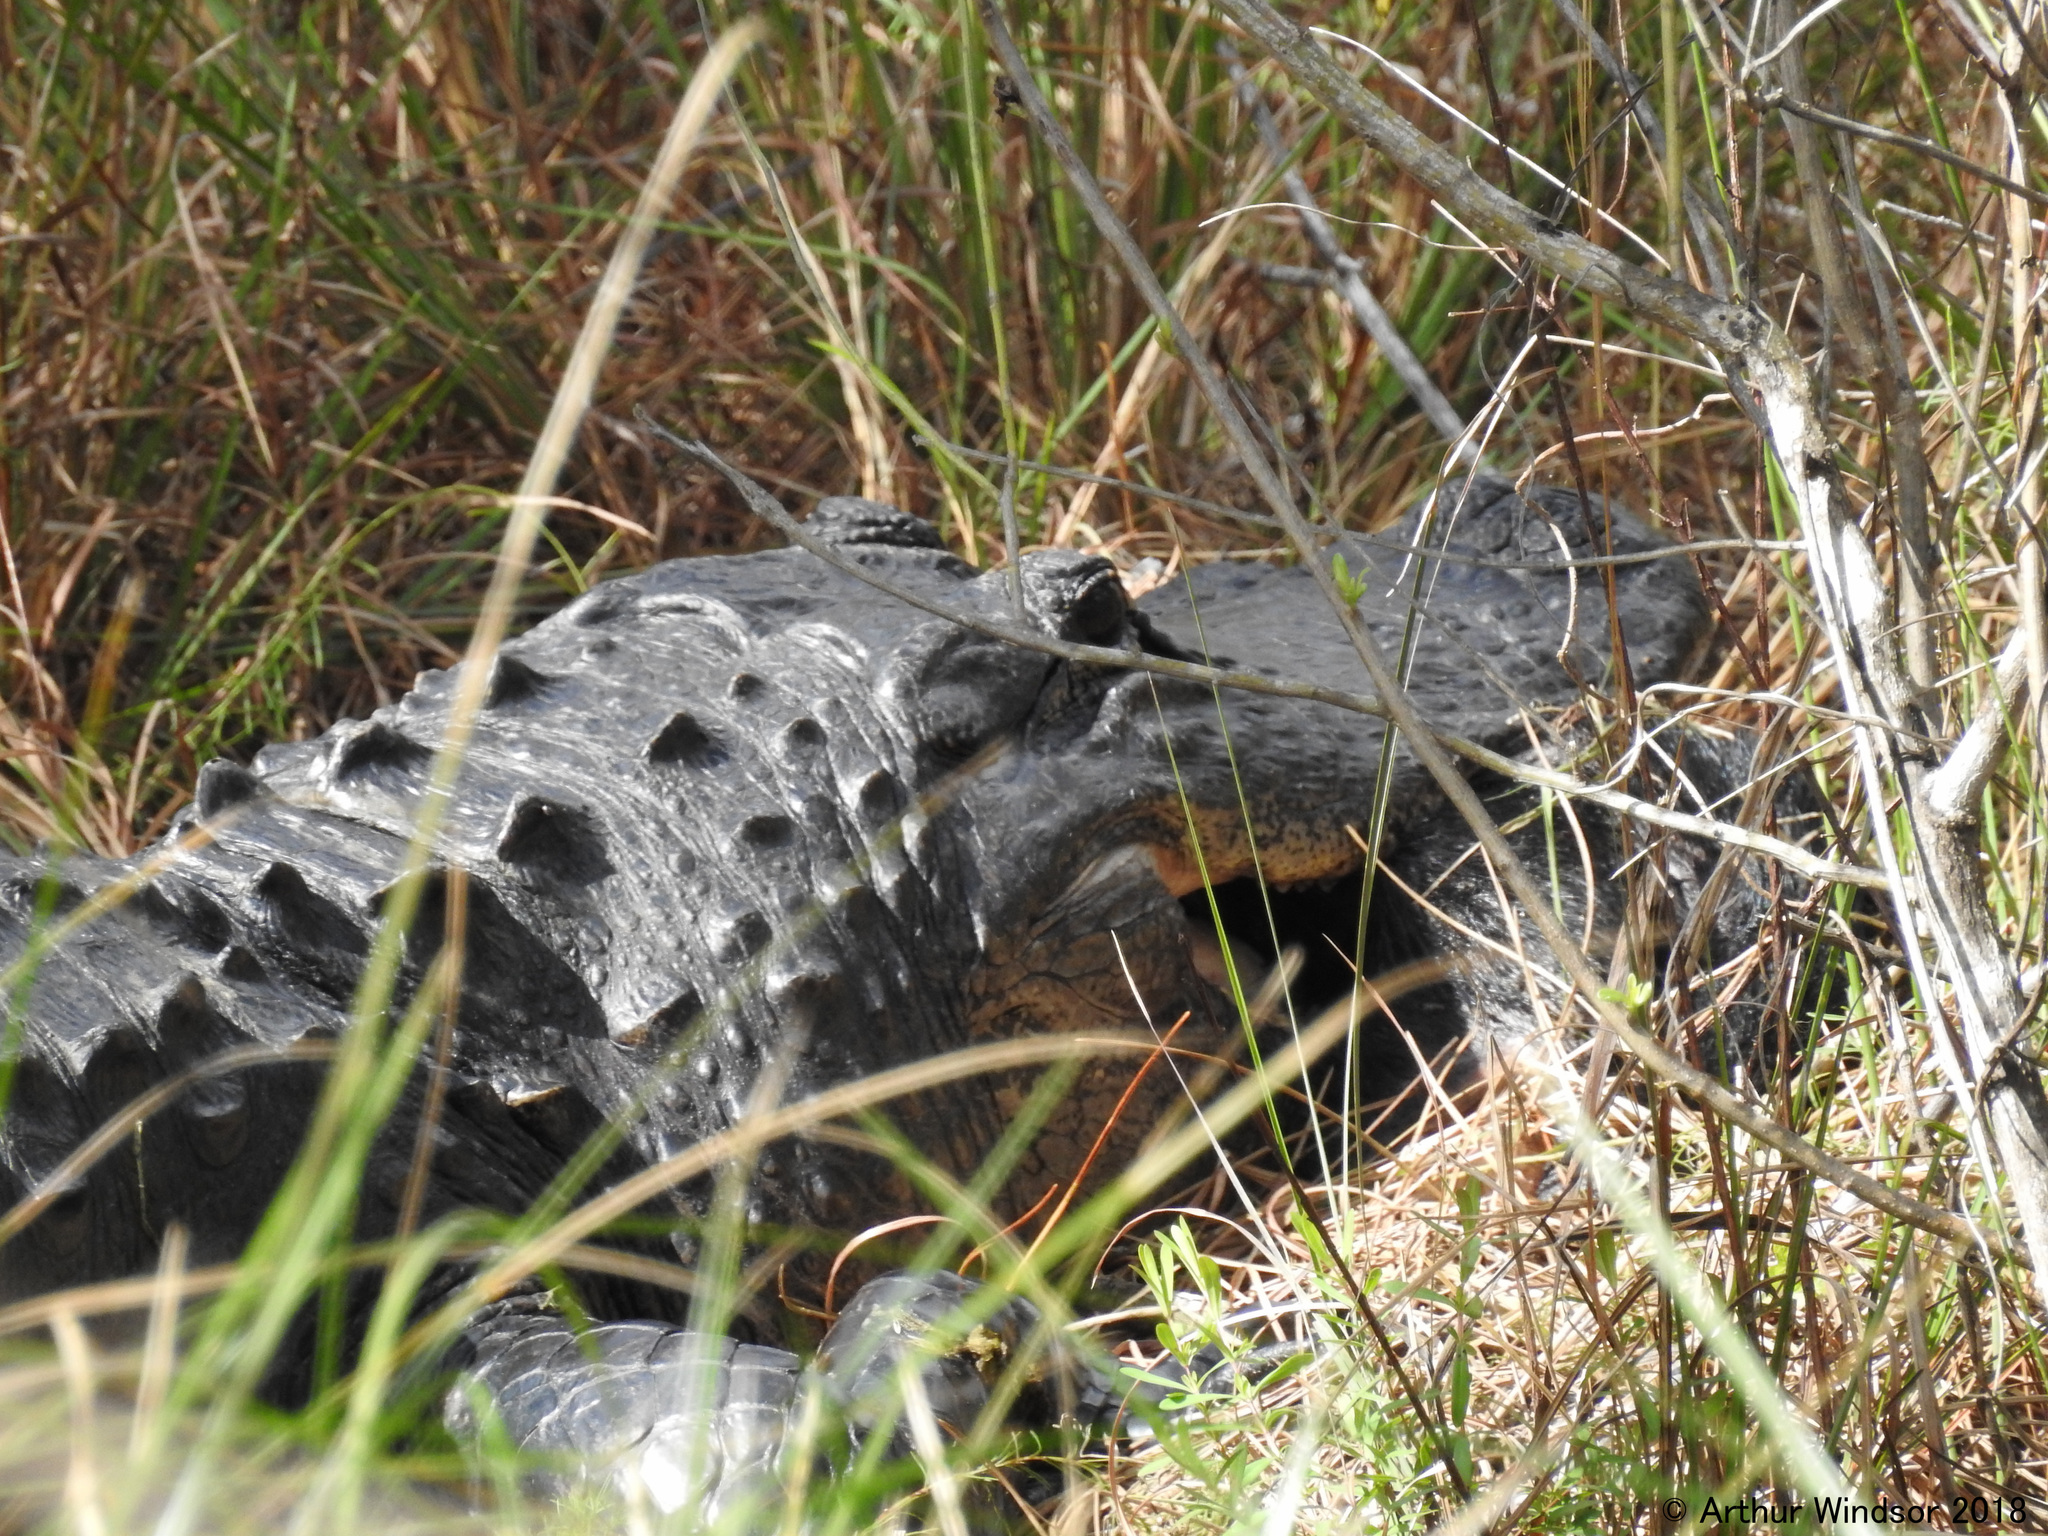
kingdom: Animalia
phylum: Chordata
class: Crocodylia
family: Alligatoridae
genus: Alligator
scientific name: Alligator mississippiensis
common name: American alligator
